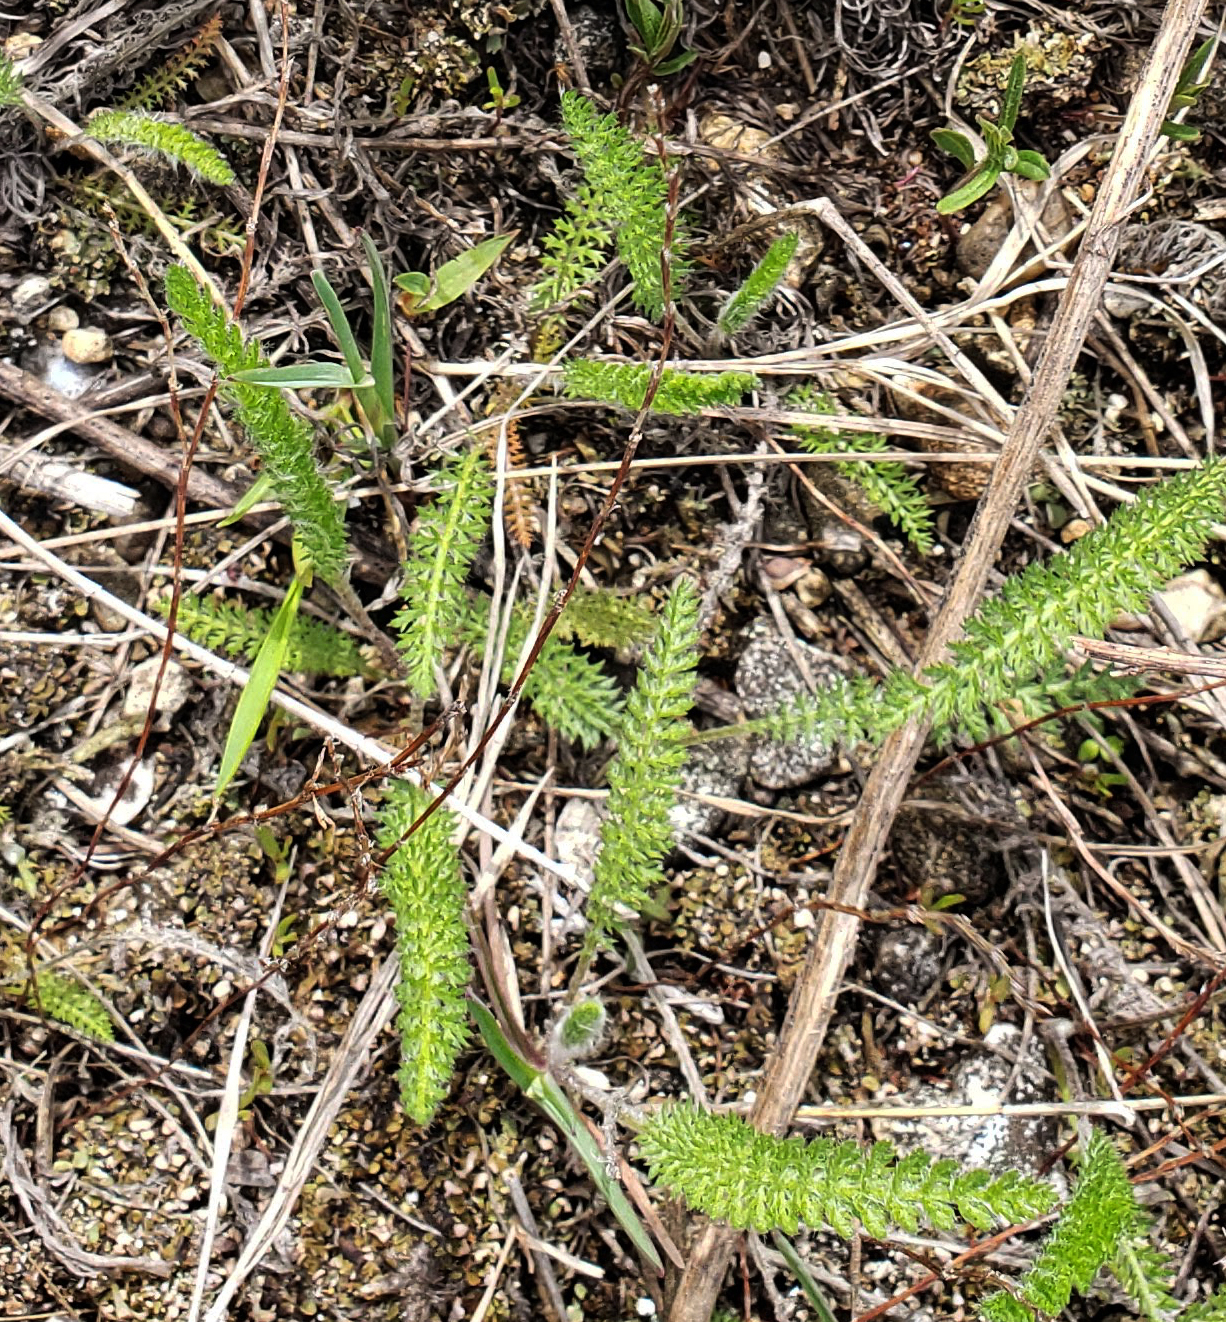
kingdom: Plantae
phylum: Tracheophyta
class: Magnoliopsida
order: Asterales
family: Asteraceae
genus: Achillea
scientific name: Achillea millefolium
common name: Yarrow
